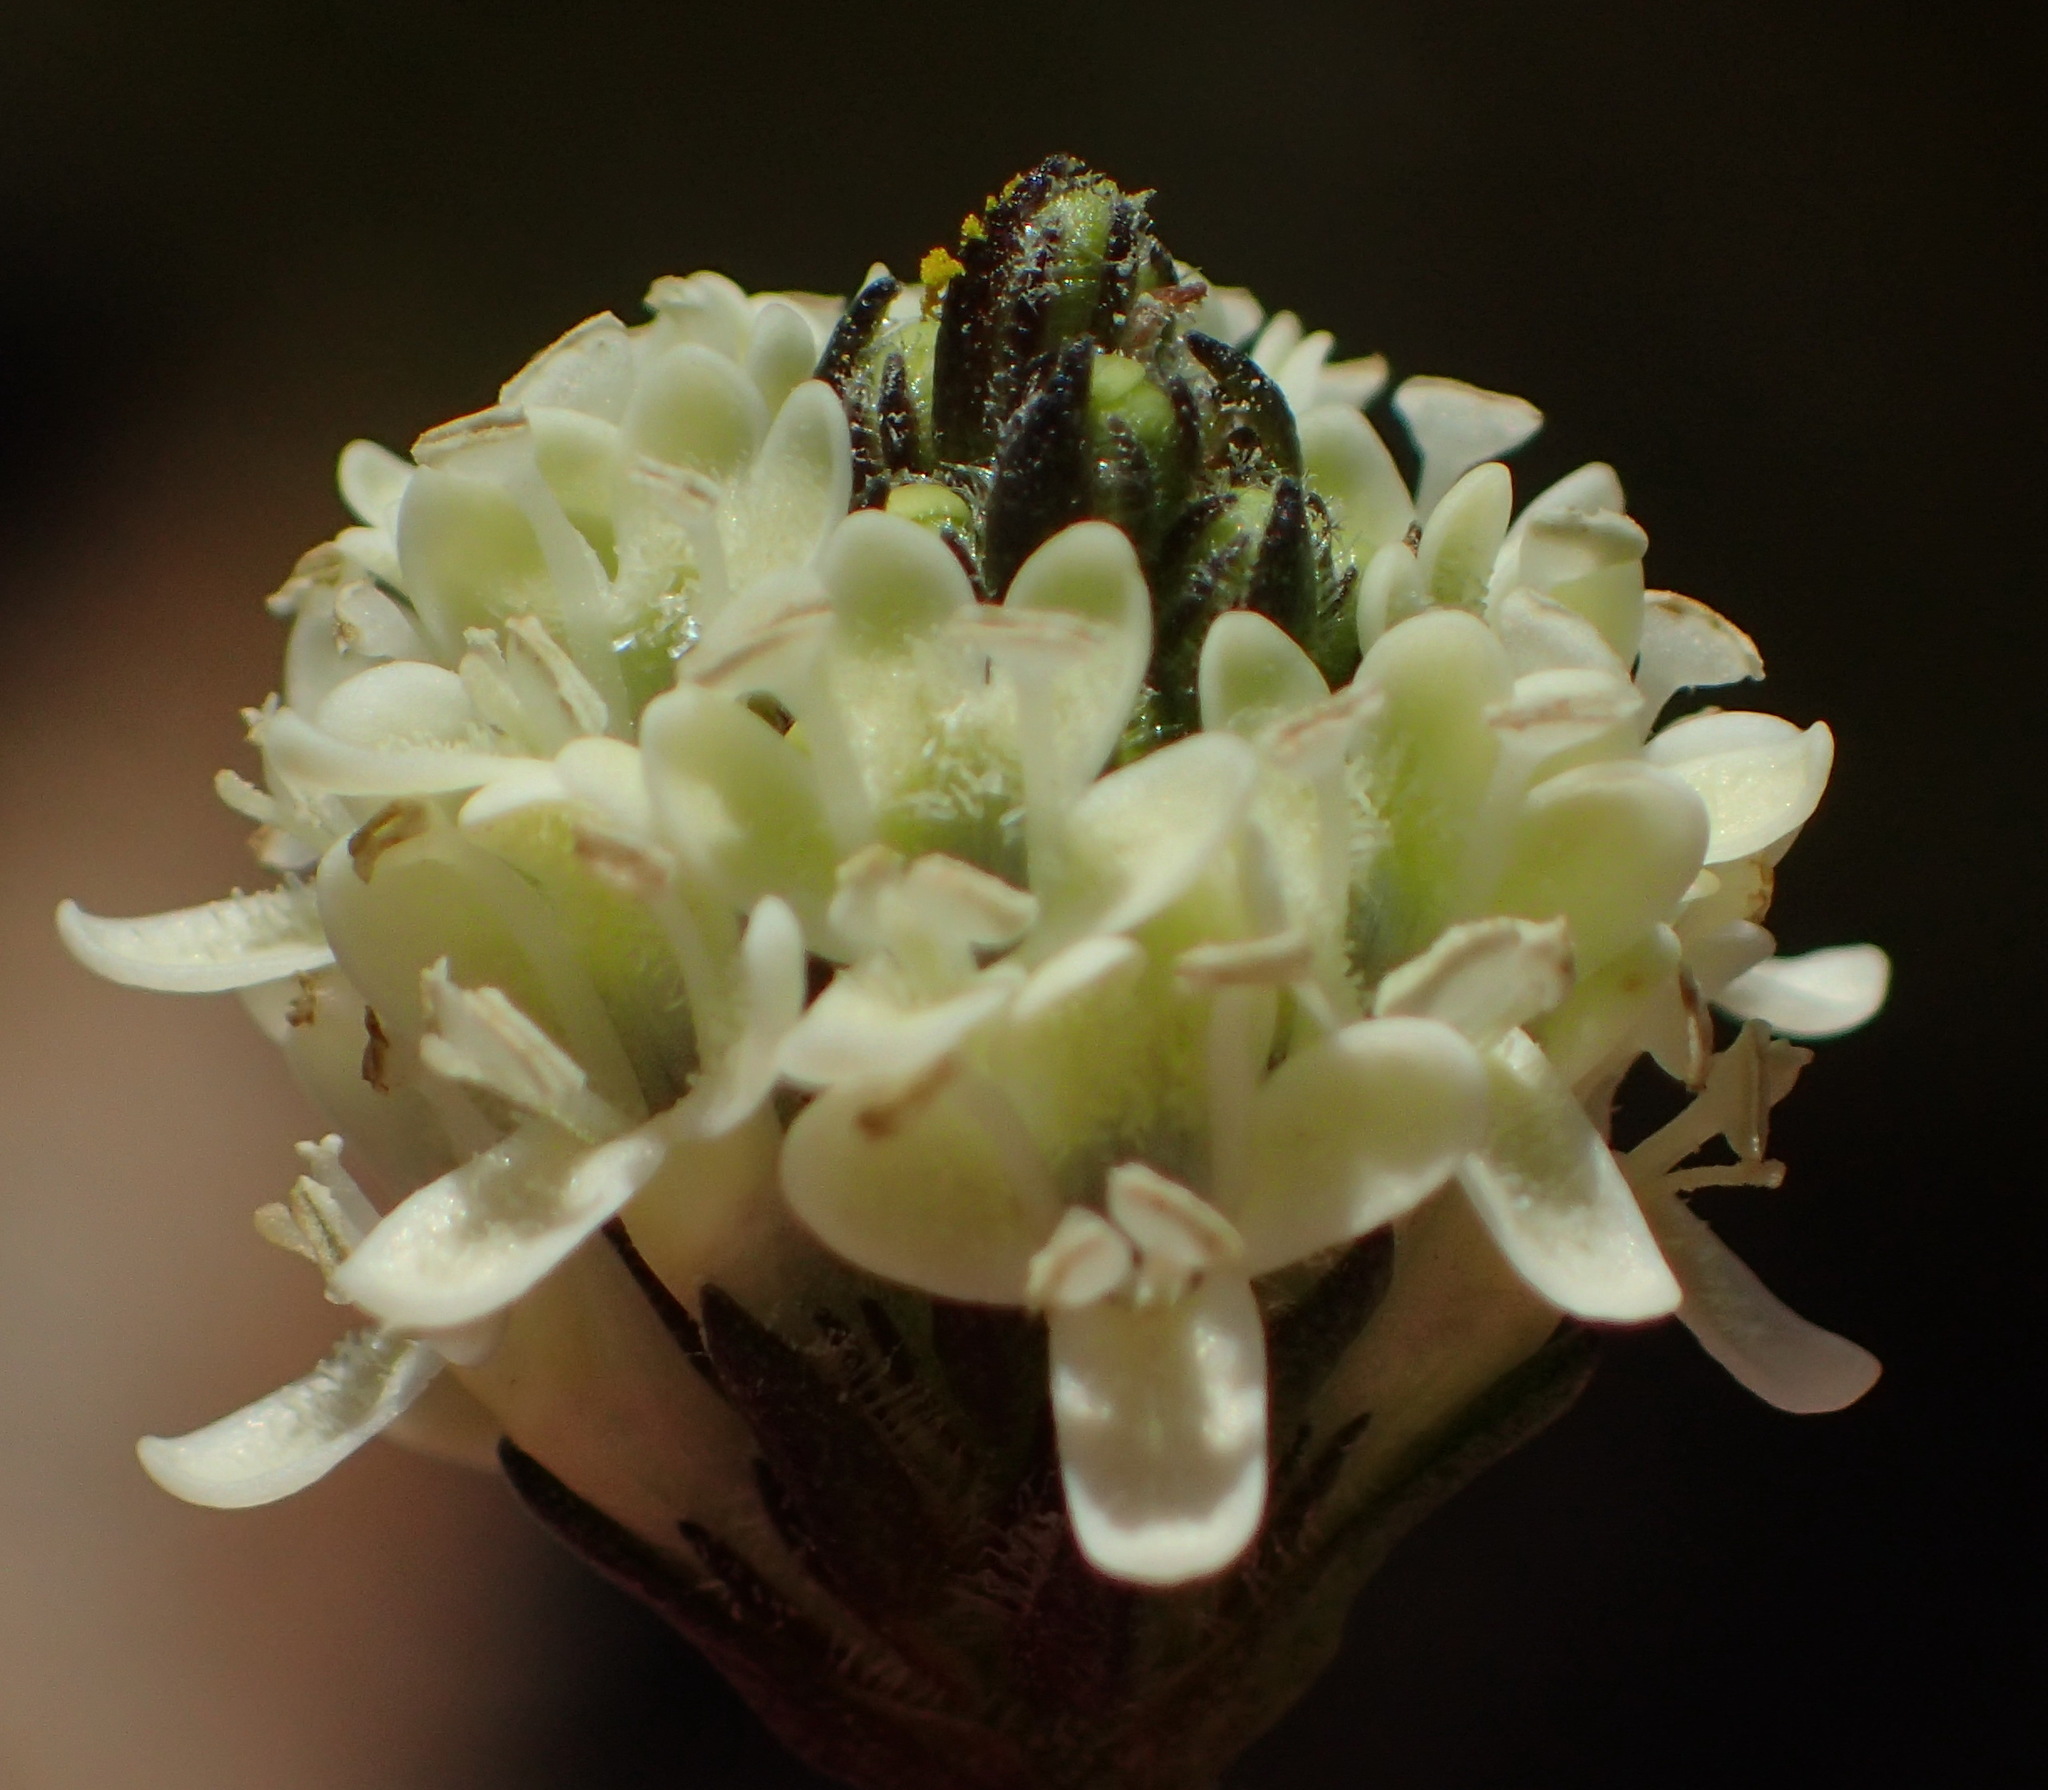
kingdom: Plantae
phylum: Tracheophyta
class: Magnoliopsida
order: Lamiales
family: Scrophulariaceae
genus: Phyllopodium
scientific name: Phyllopodium elegans
